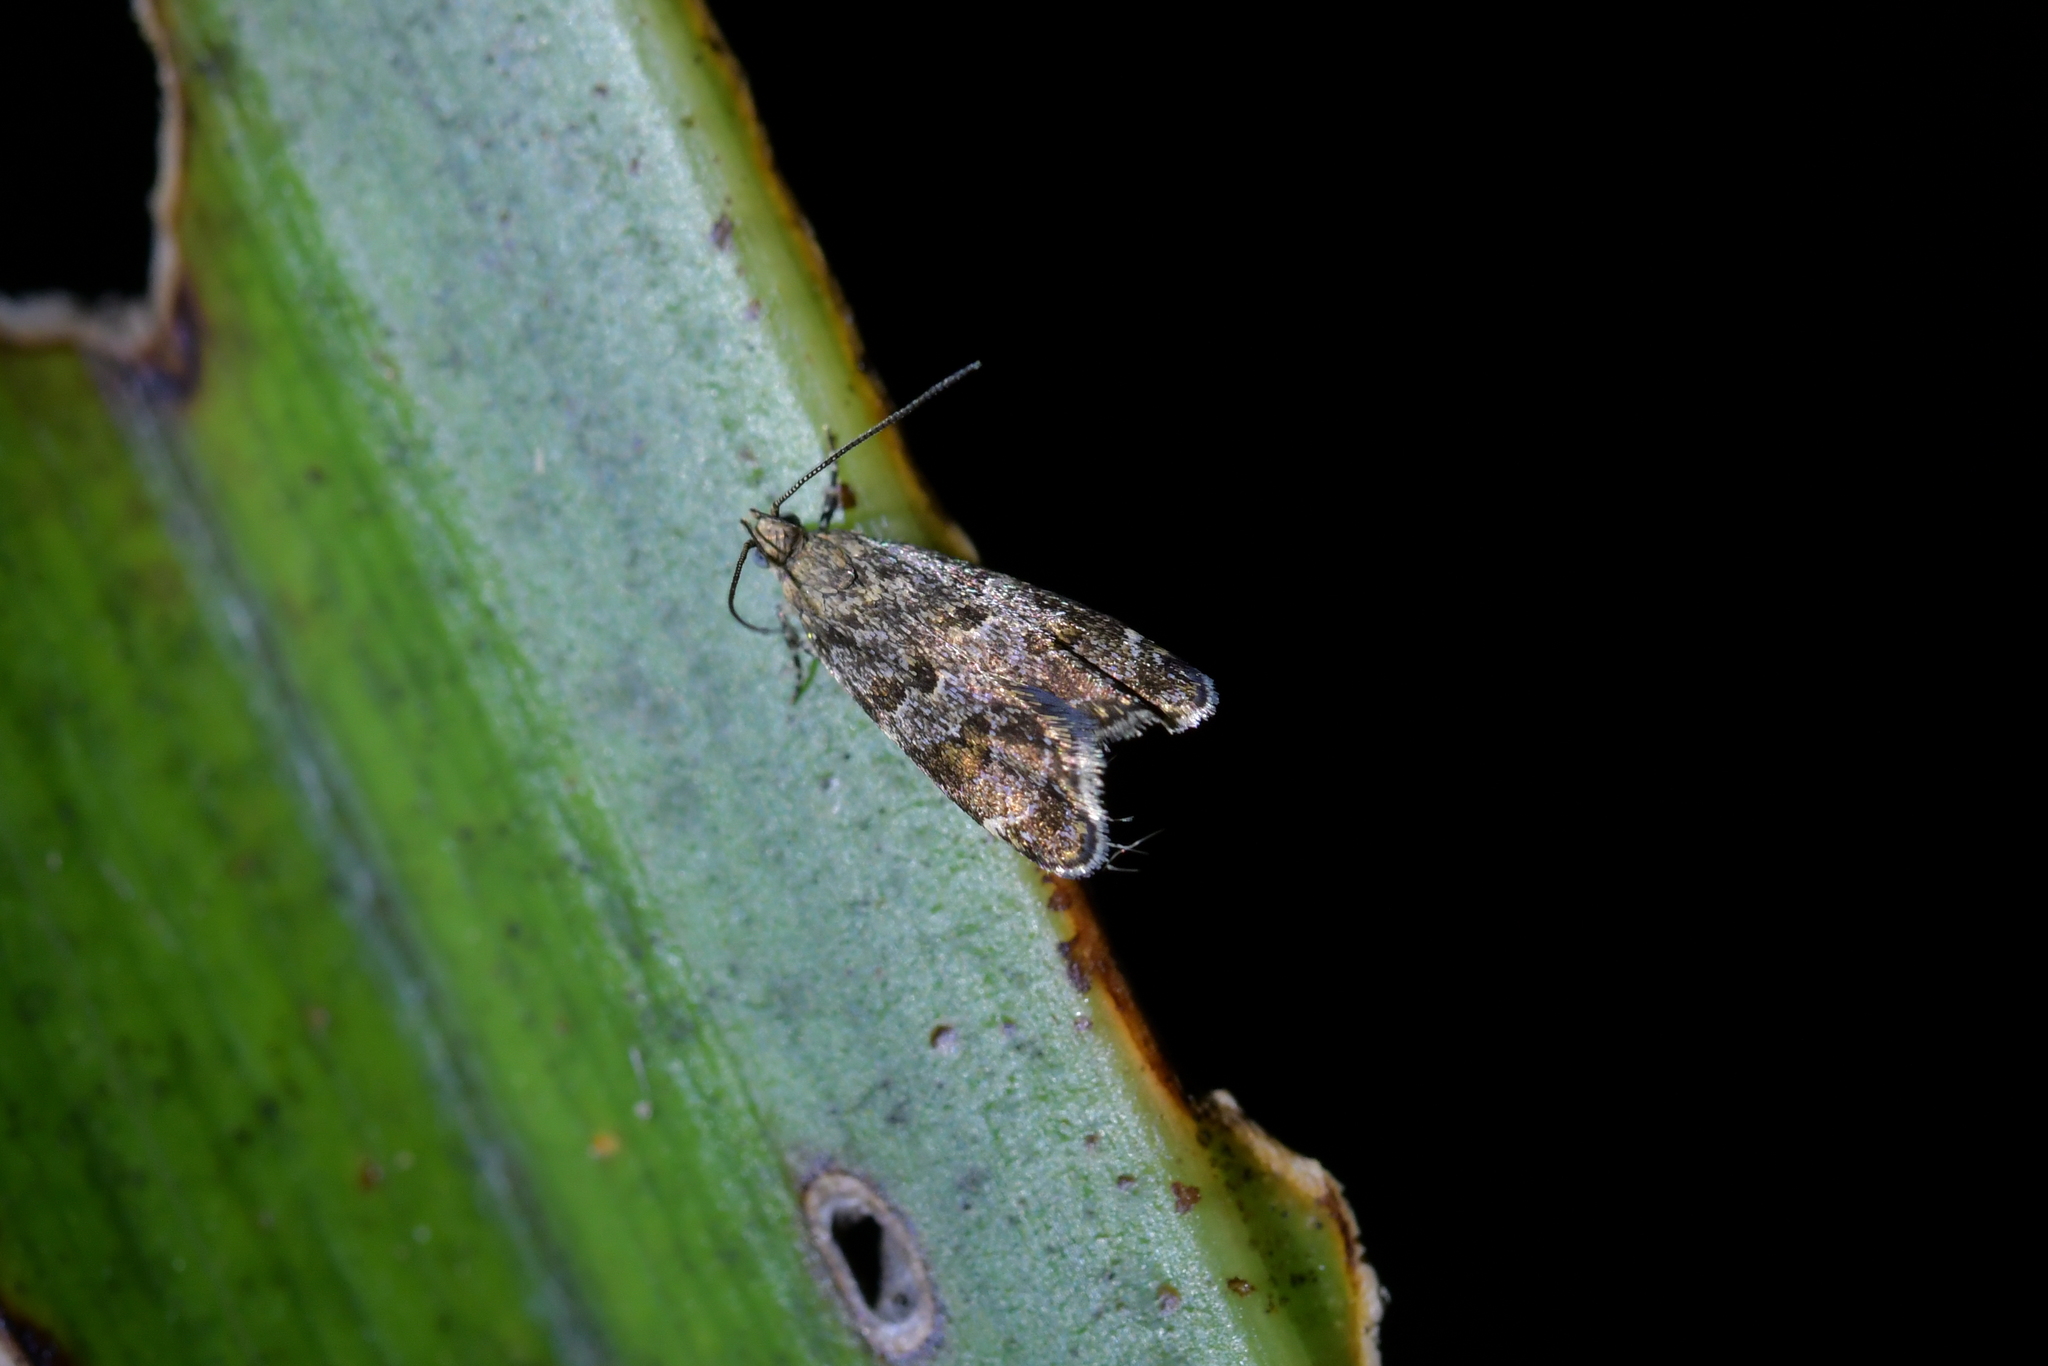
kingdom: Animalia
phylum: Arthropoda
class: Insecta
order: Lepidoptera
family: Oecophoridae
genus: Gymnobathra
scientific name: Gymnobathra omphalota
